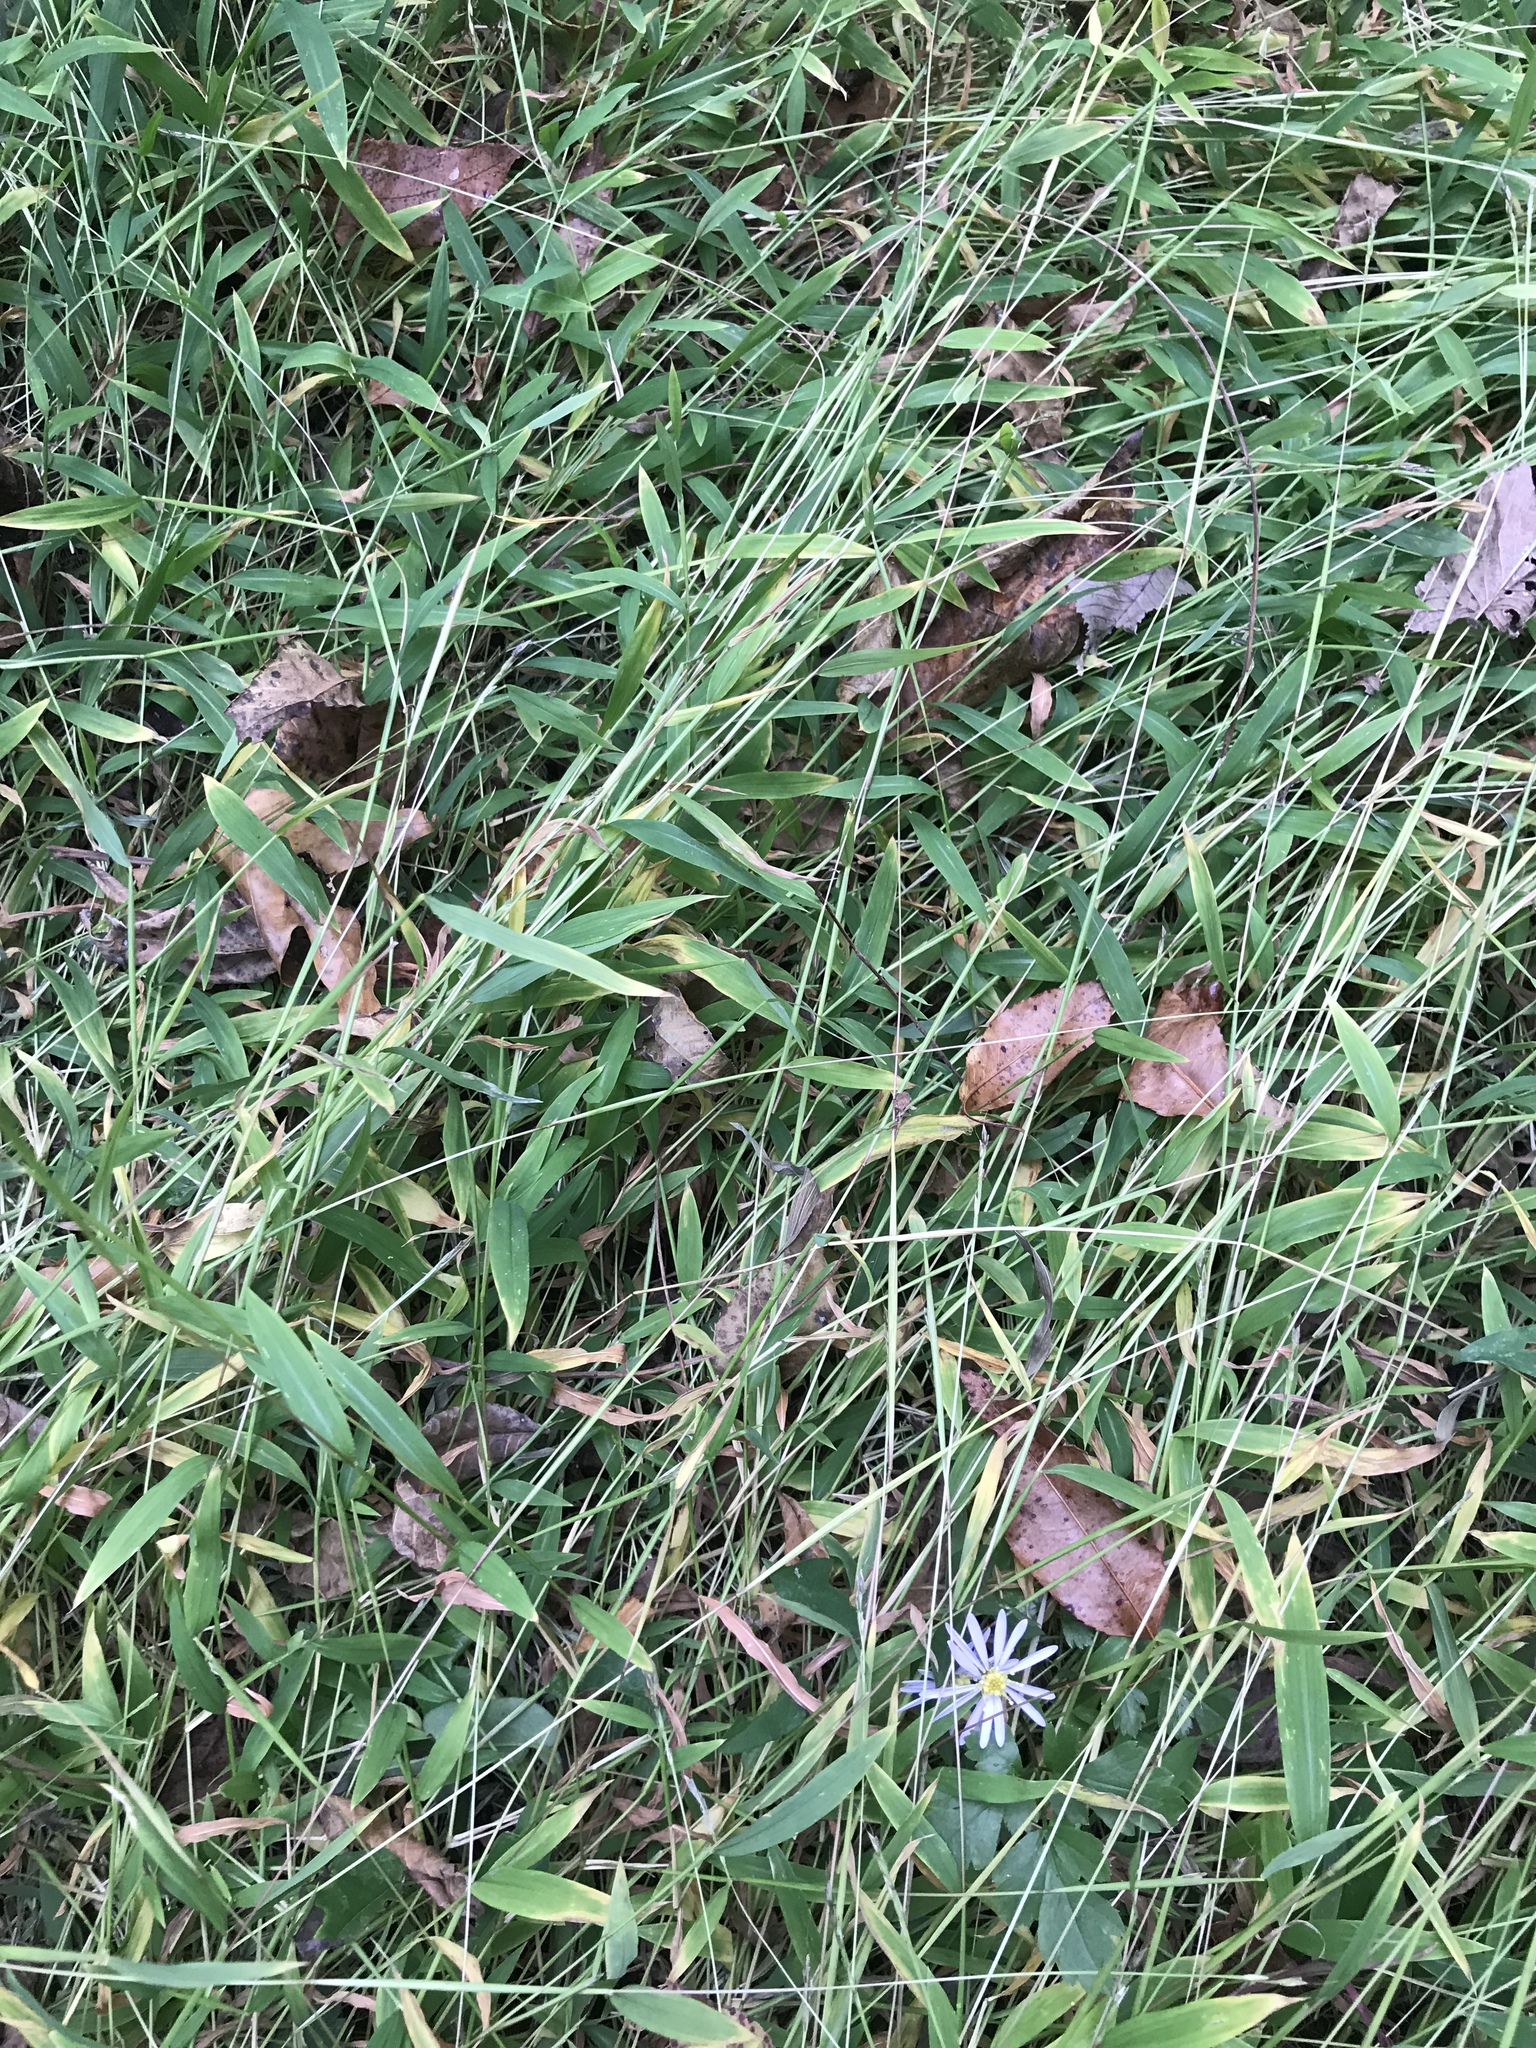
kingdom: Plantae
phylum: Tracheophyta
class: Liliopsida
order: Poales
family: Poaceae
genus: Microstegium
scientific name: Microstegium vimineum
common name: Japanese stiltgrass
